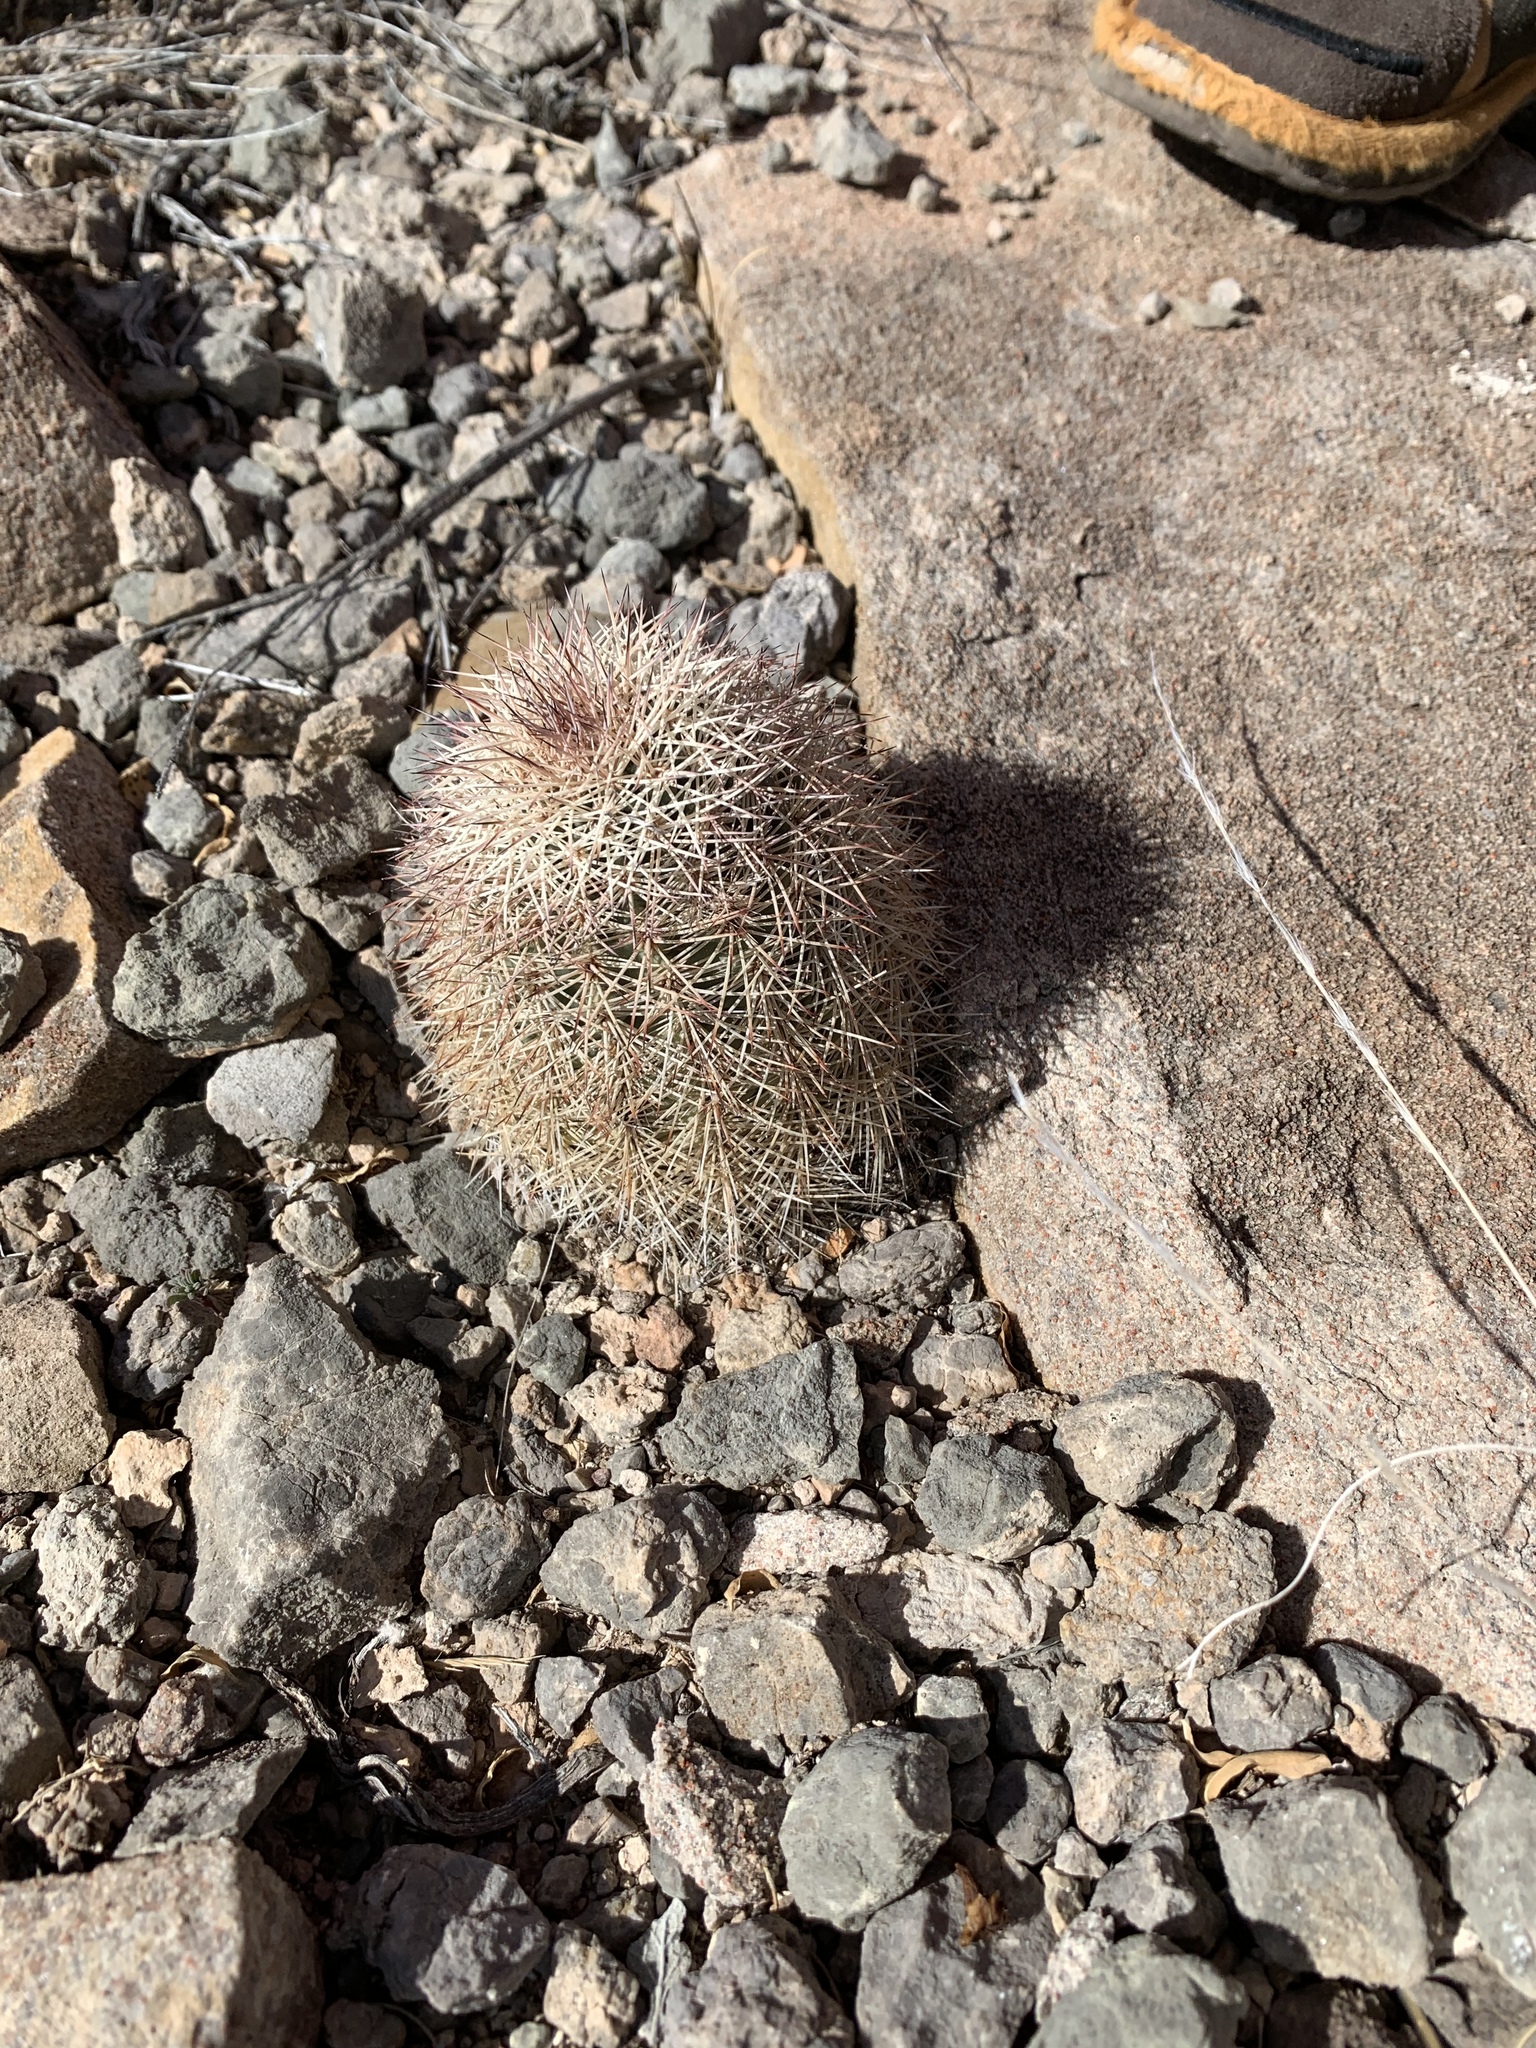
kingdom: Plantae
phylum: Tracheophyta
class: Magnoliopsida
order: Caryophyllales
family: Cactaceae
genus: Echinocereus
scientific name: Echinocereus dasyacanthus
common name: Spiny hedgehog cactus
